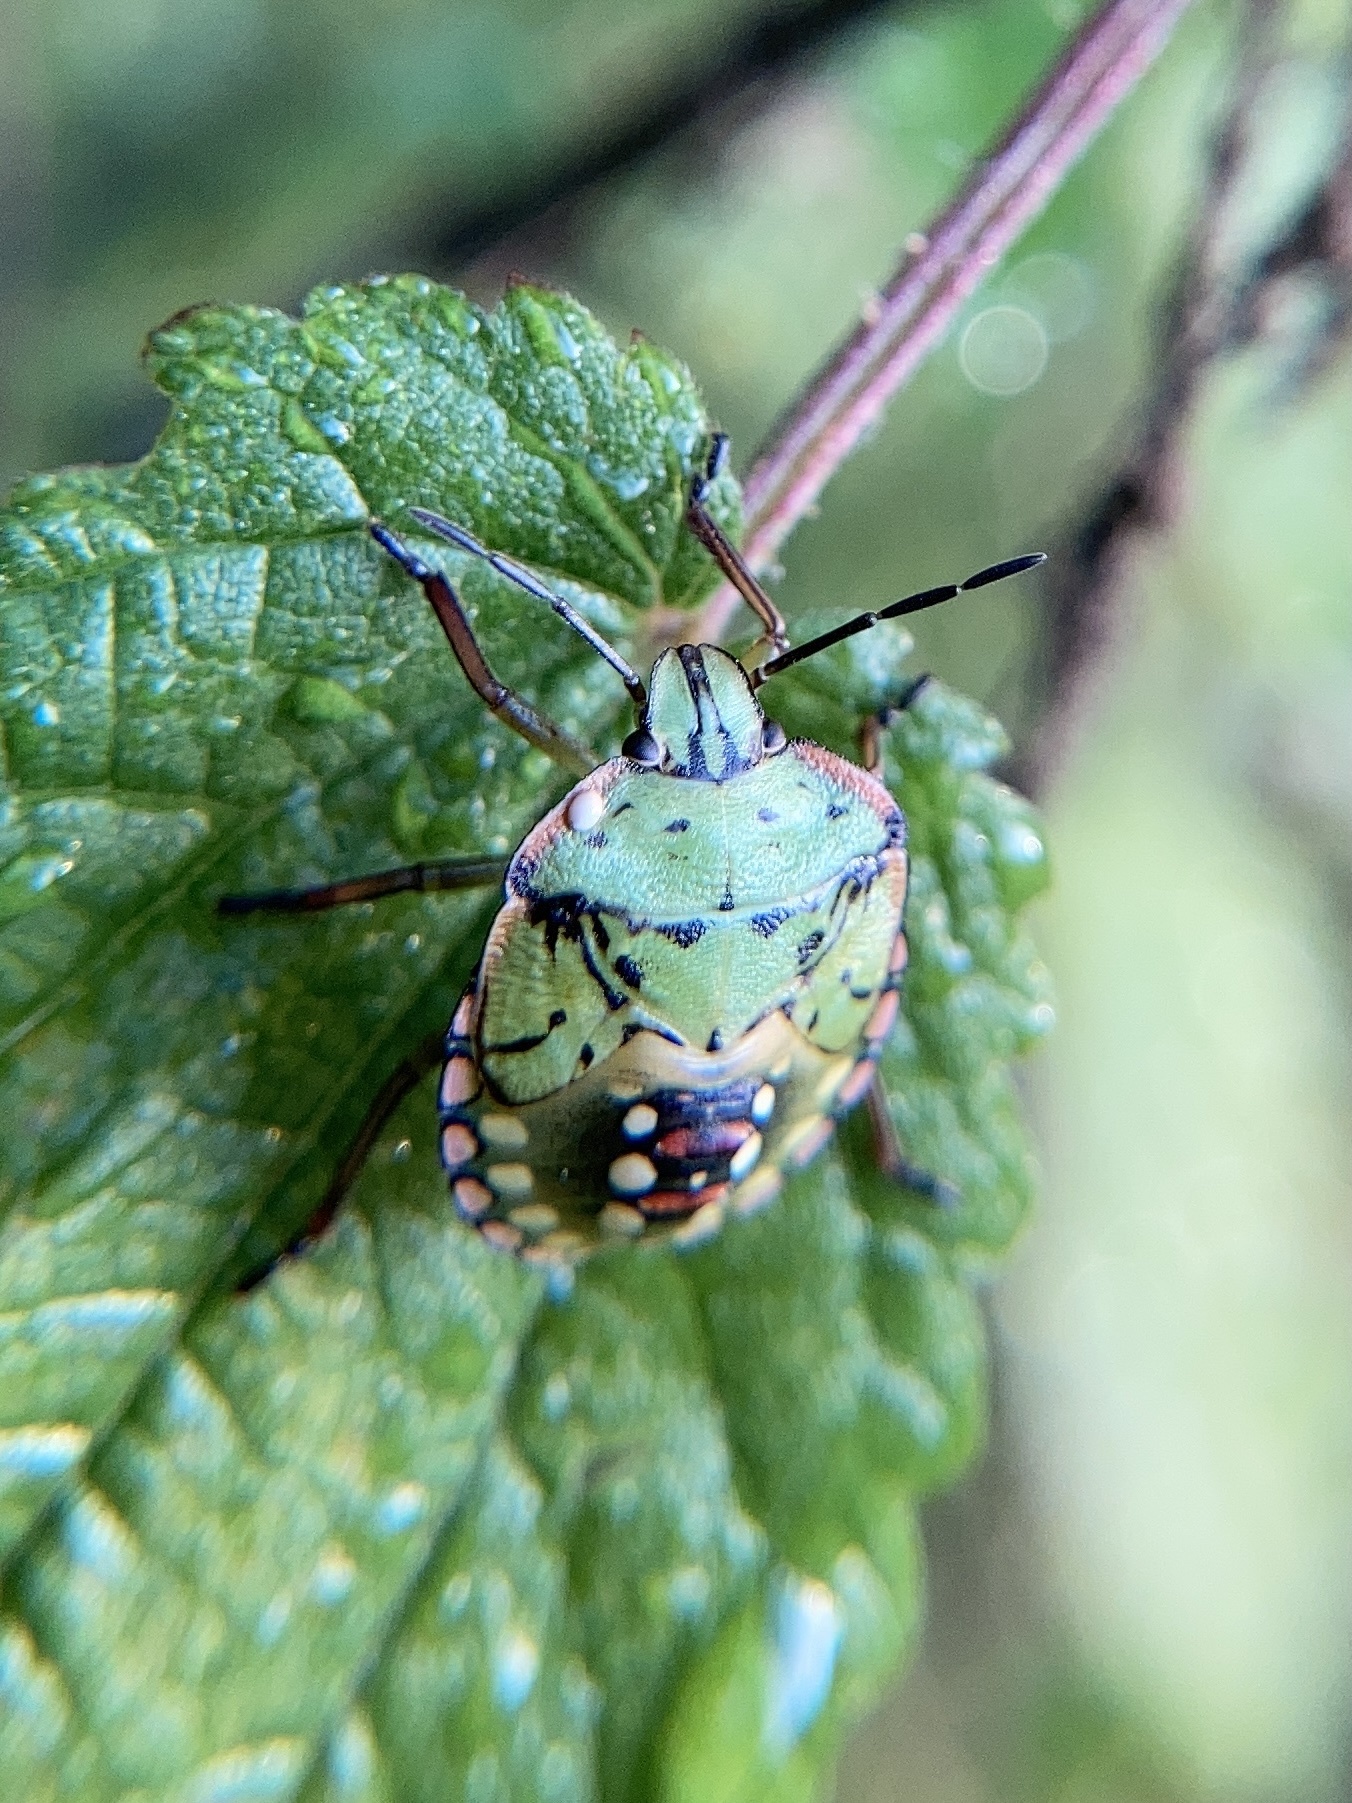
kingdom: Animalia
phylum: Arthropoda
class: Insecta
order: Hemiptera
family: Pentatomidae
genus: Nezara
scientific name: Nezara viridula
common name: Southern green stink bug
